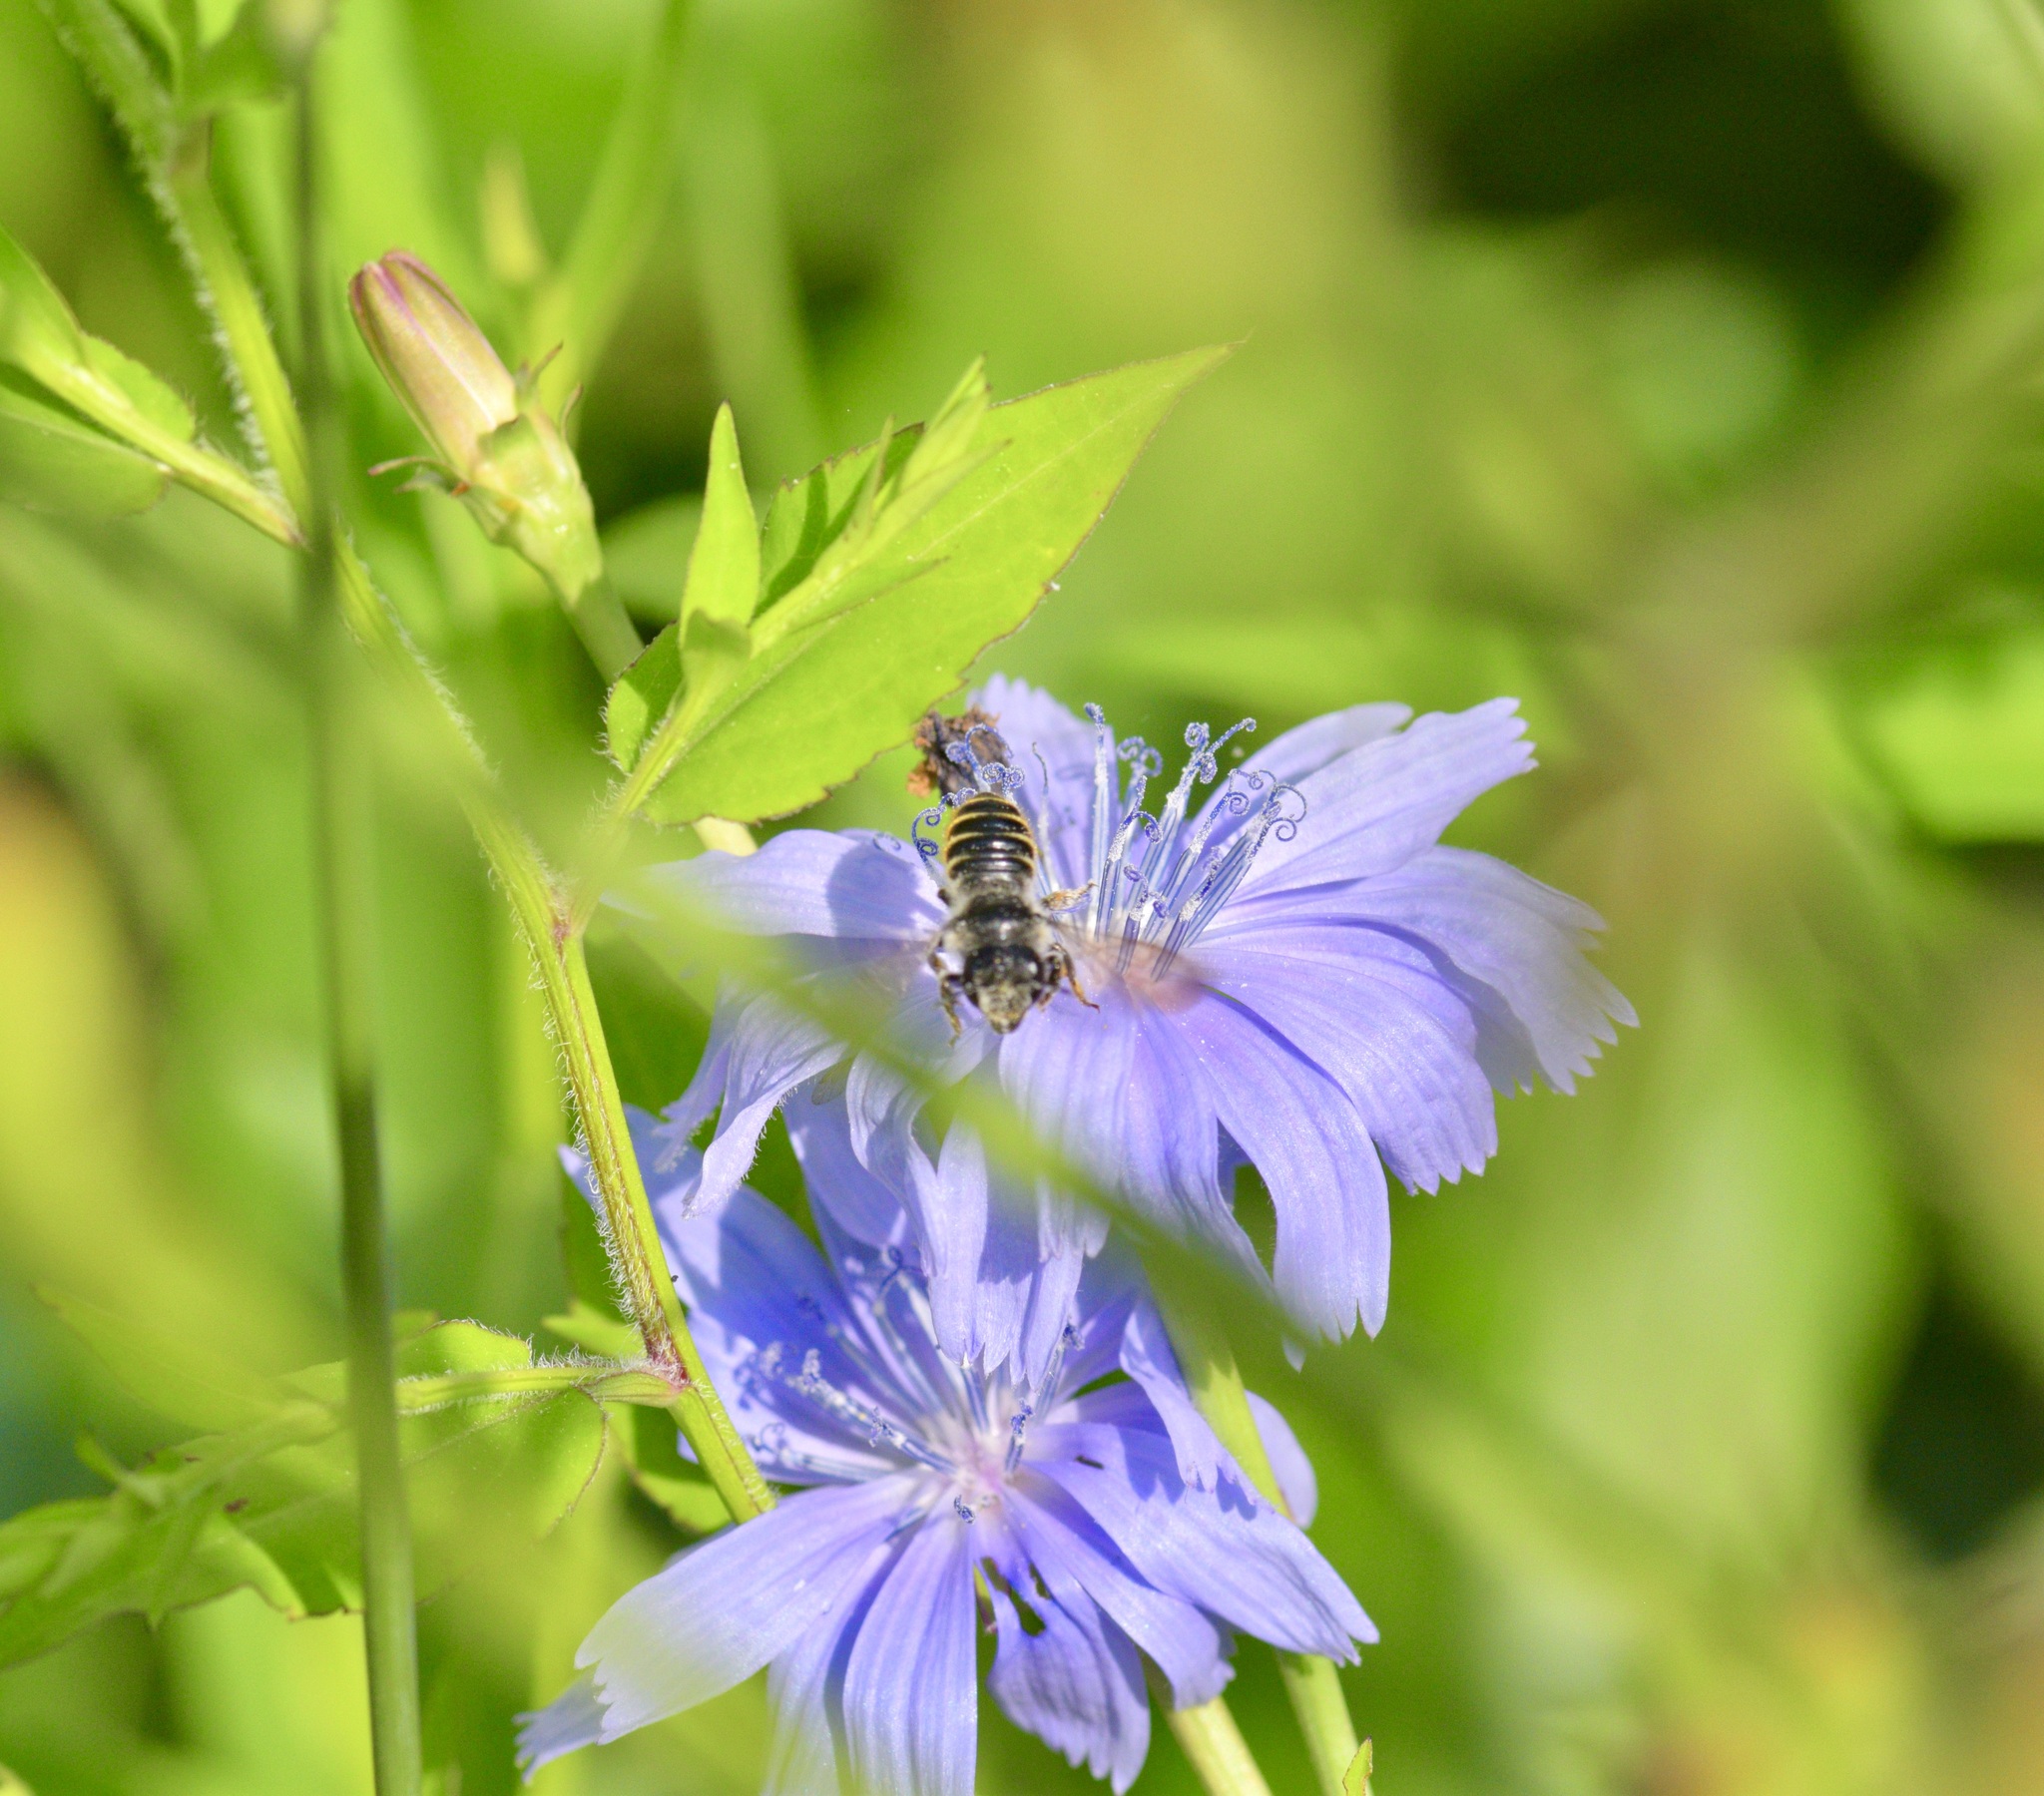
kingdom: Animalia
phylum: Arthropoda
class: Insecta
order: Hymenoptera
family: Megachilidae
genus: Megachile
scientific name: Megachile relativa
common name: Golden-tailed leafcutter
